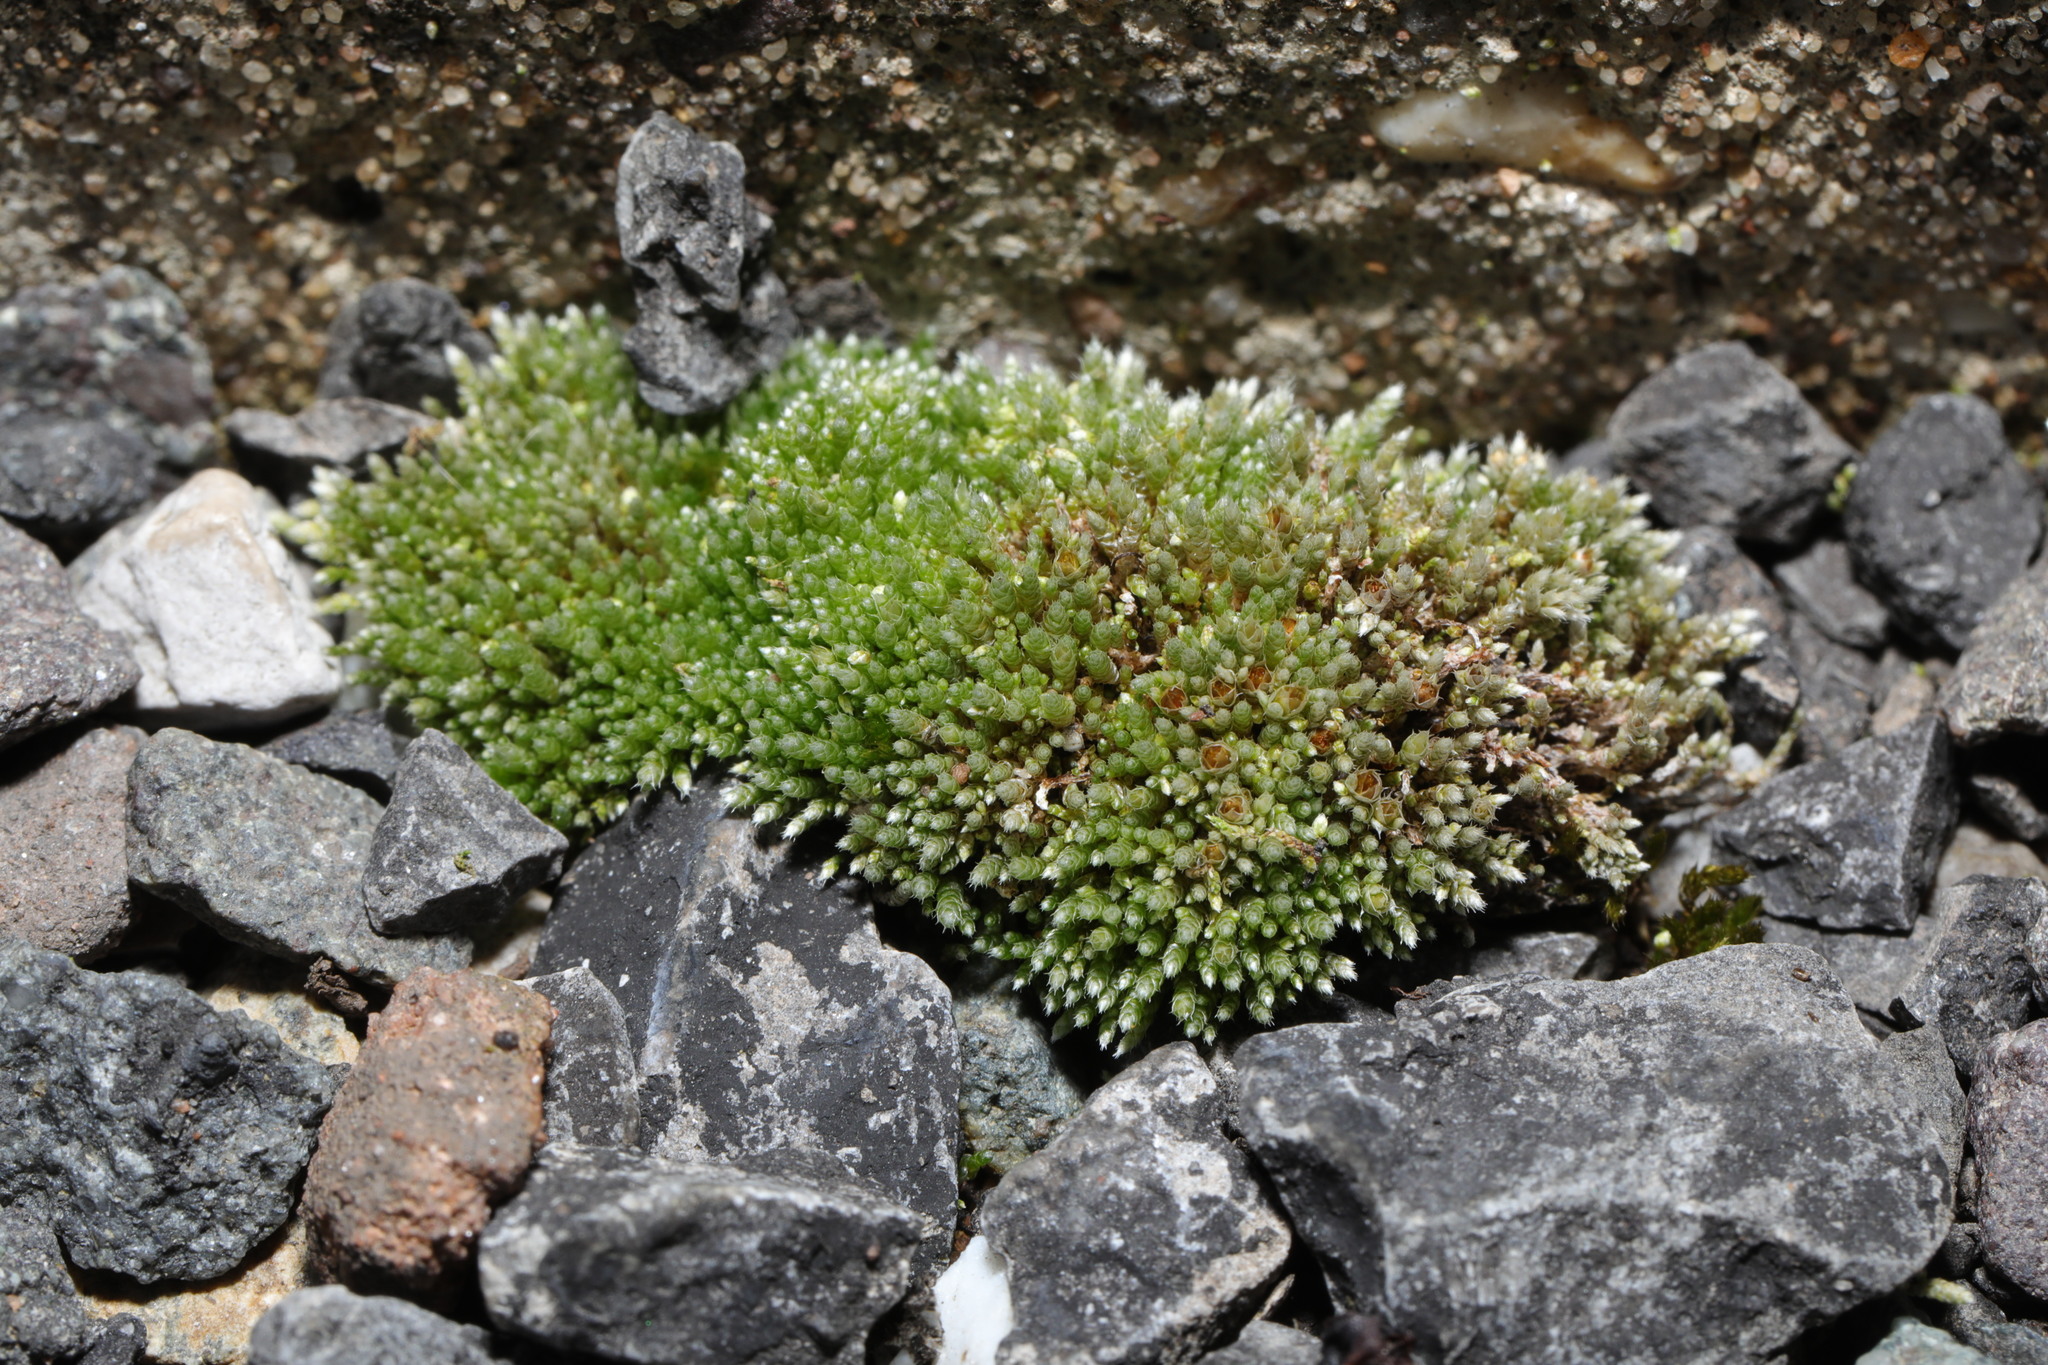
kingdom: Plantae
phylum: Bryophyta
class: Bryopsida
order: Bryales
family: Bryaceae
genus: Bryum
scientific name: Bryum argenteum
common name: Silver-moss
